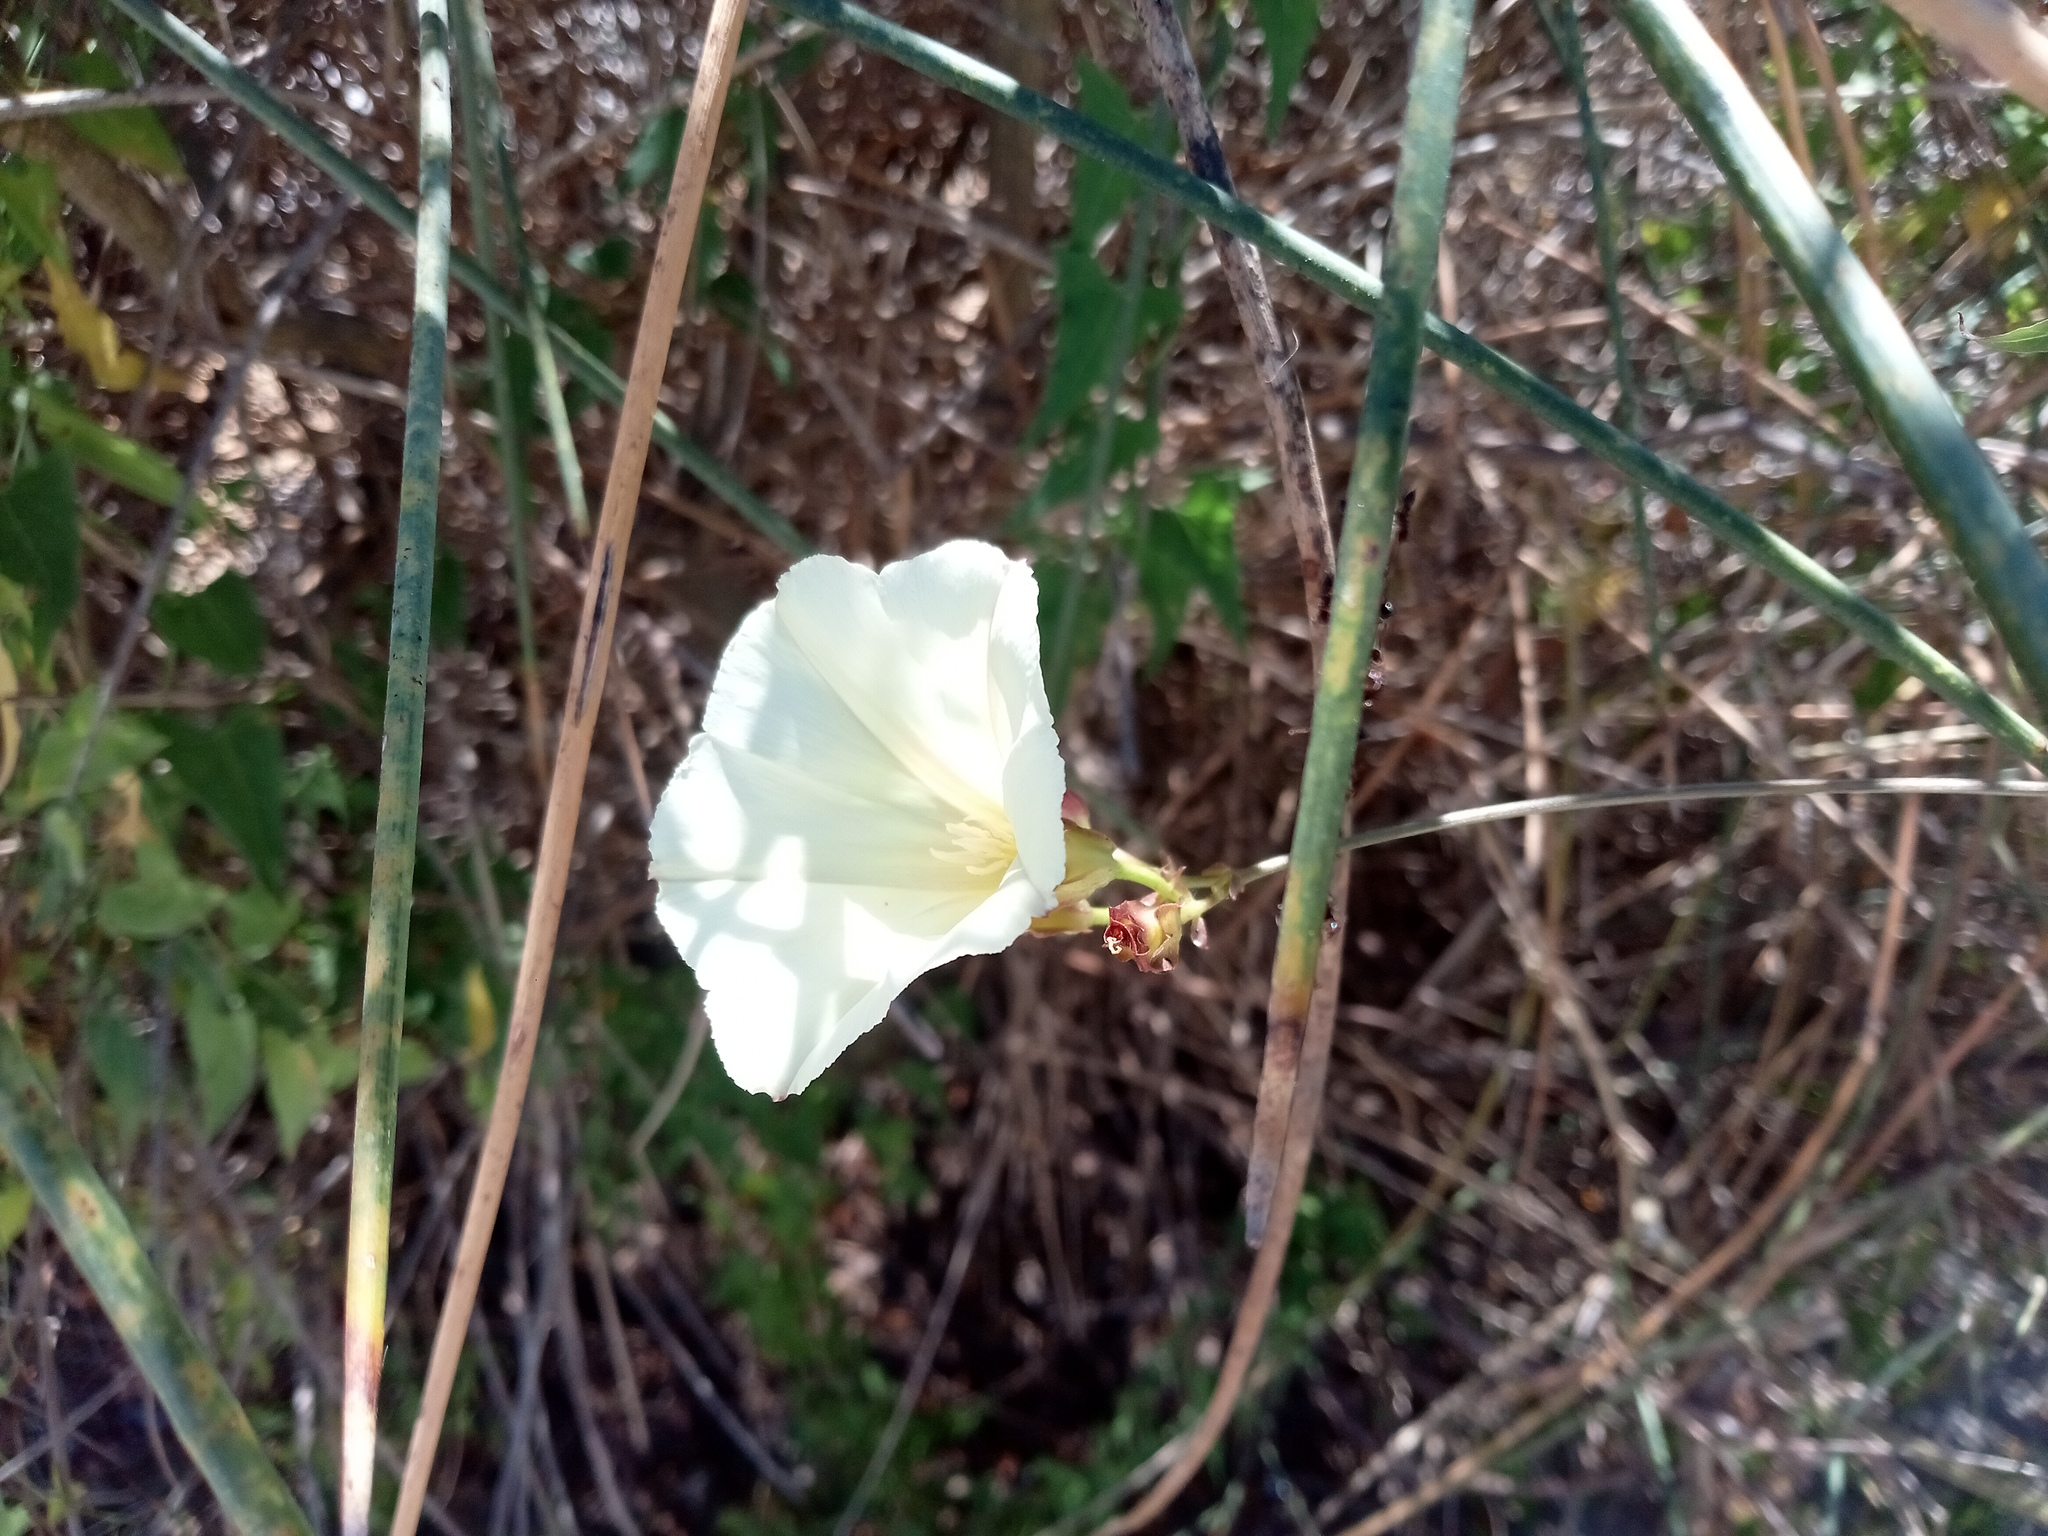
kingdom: Plantae
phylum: Tracheophyta
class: Magnoliopsida
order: Solanales
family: Convolvulaceae
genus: Convolvulus
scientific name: Convolvulus scammonia
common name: Scammony
